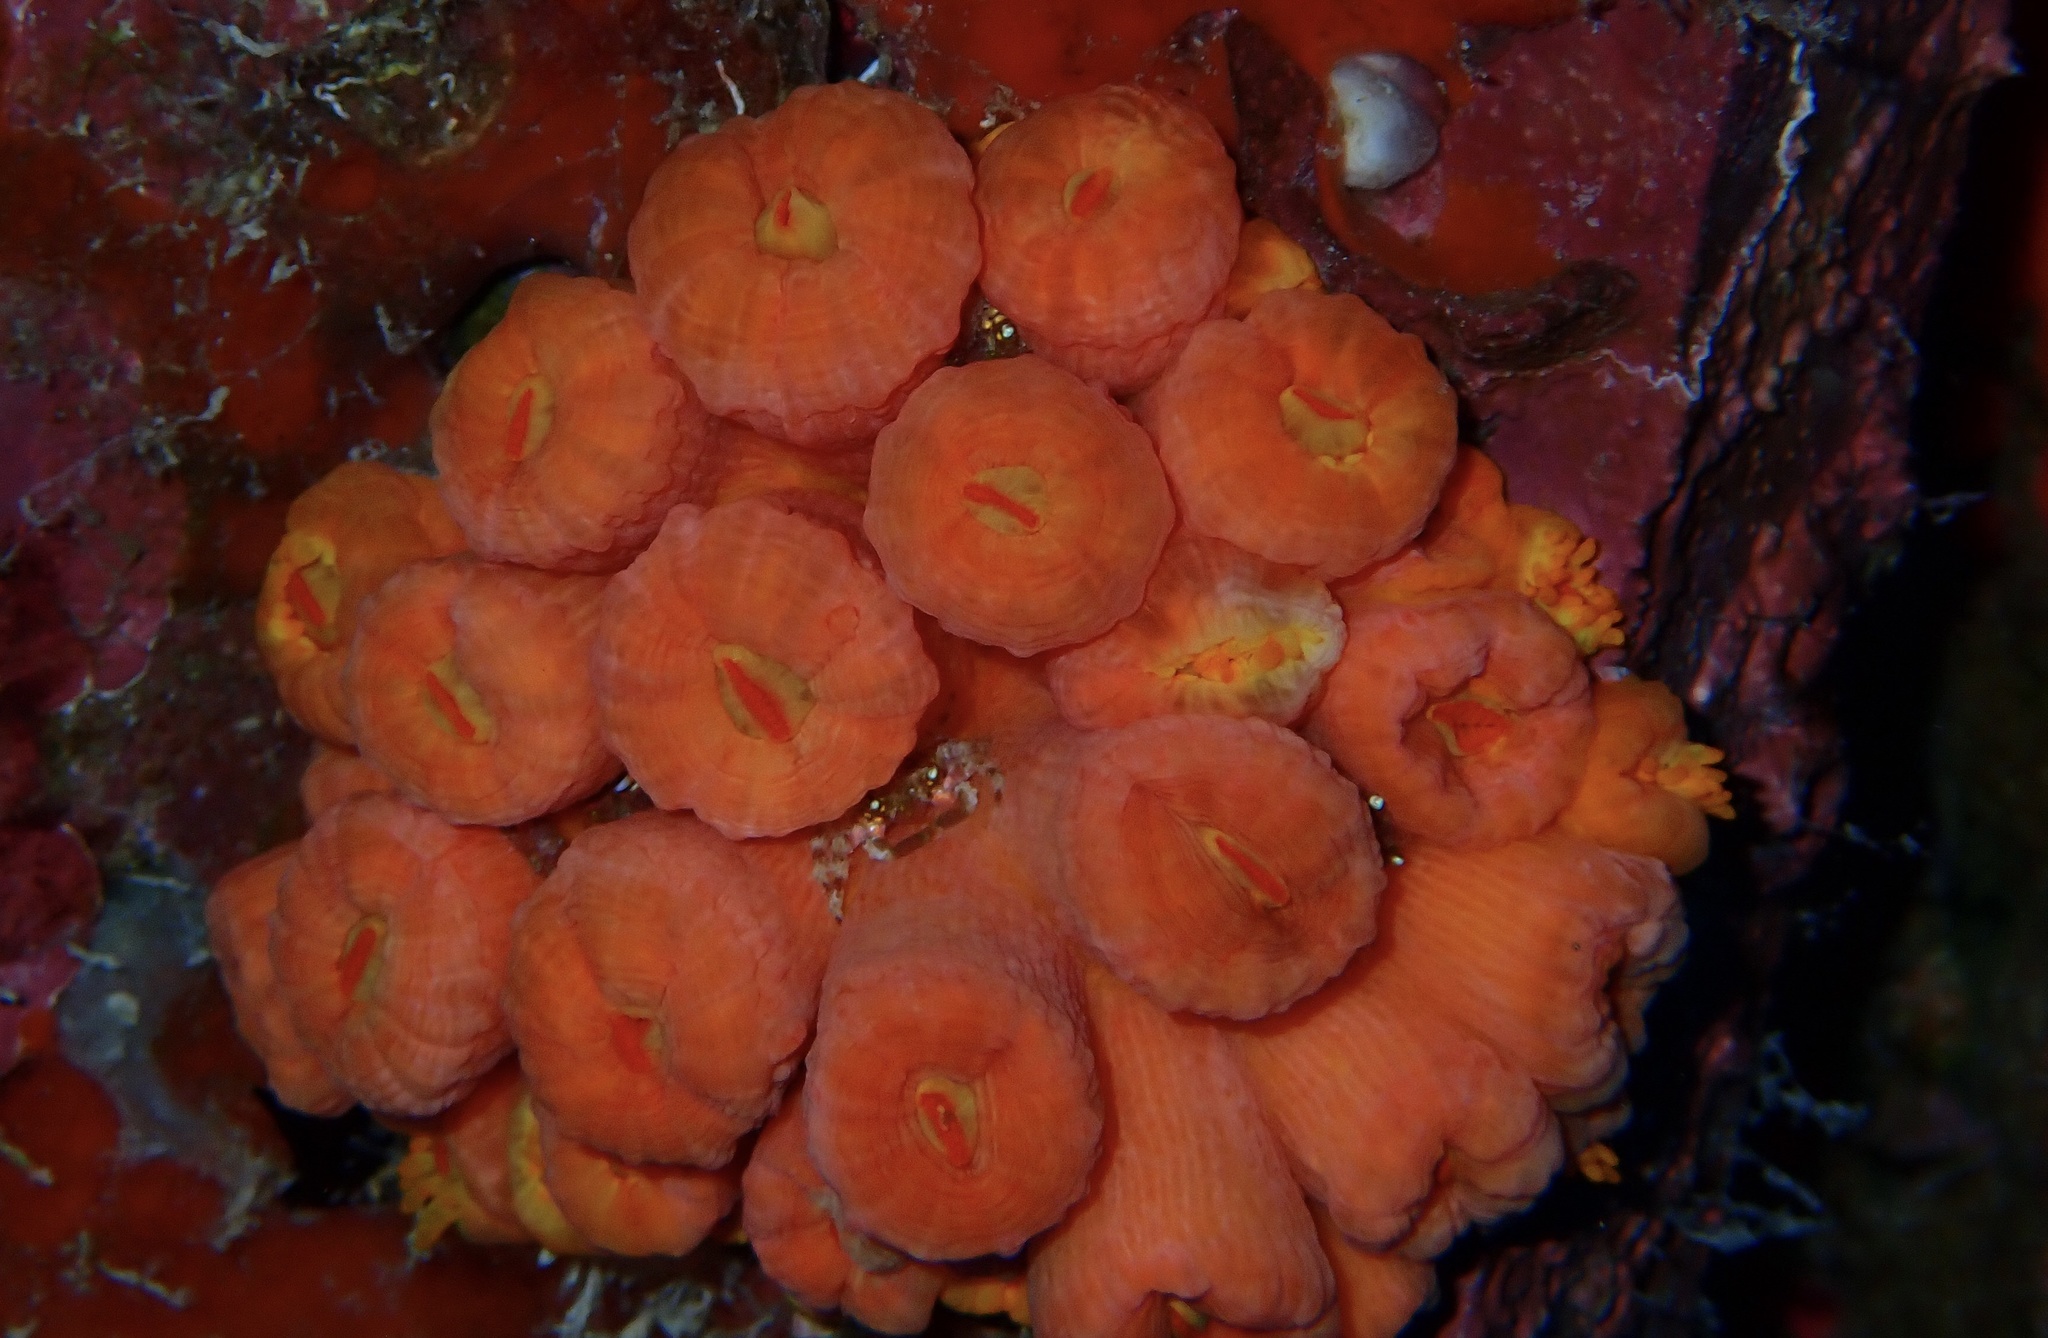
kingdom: Animalia
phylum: Cnidaria
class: Anthozoa
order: Scleractinia
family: Dendrophylliidae
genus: Tubastraea
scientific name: Tubastraea coccinea
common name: Orange cup coral
